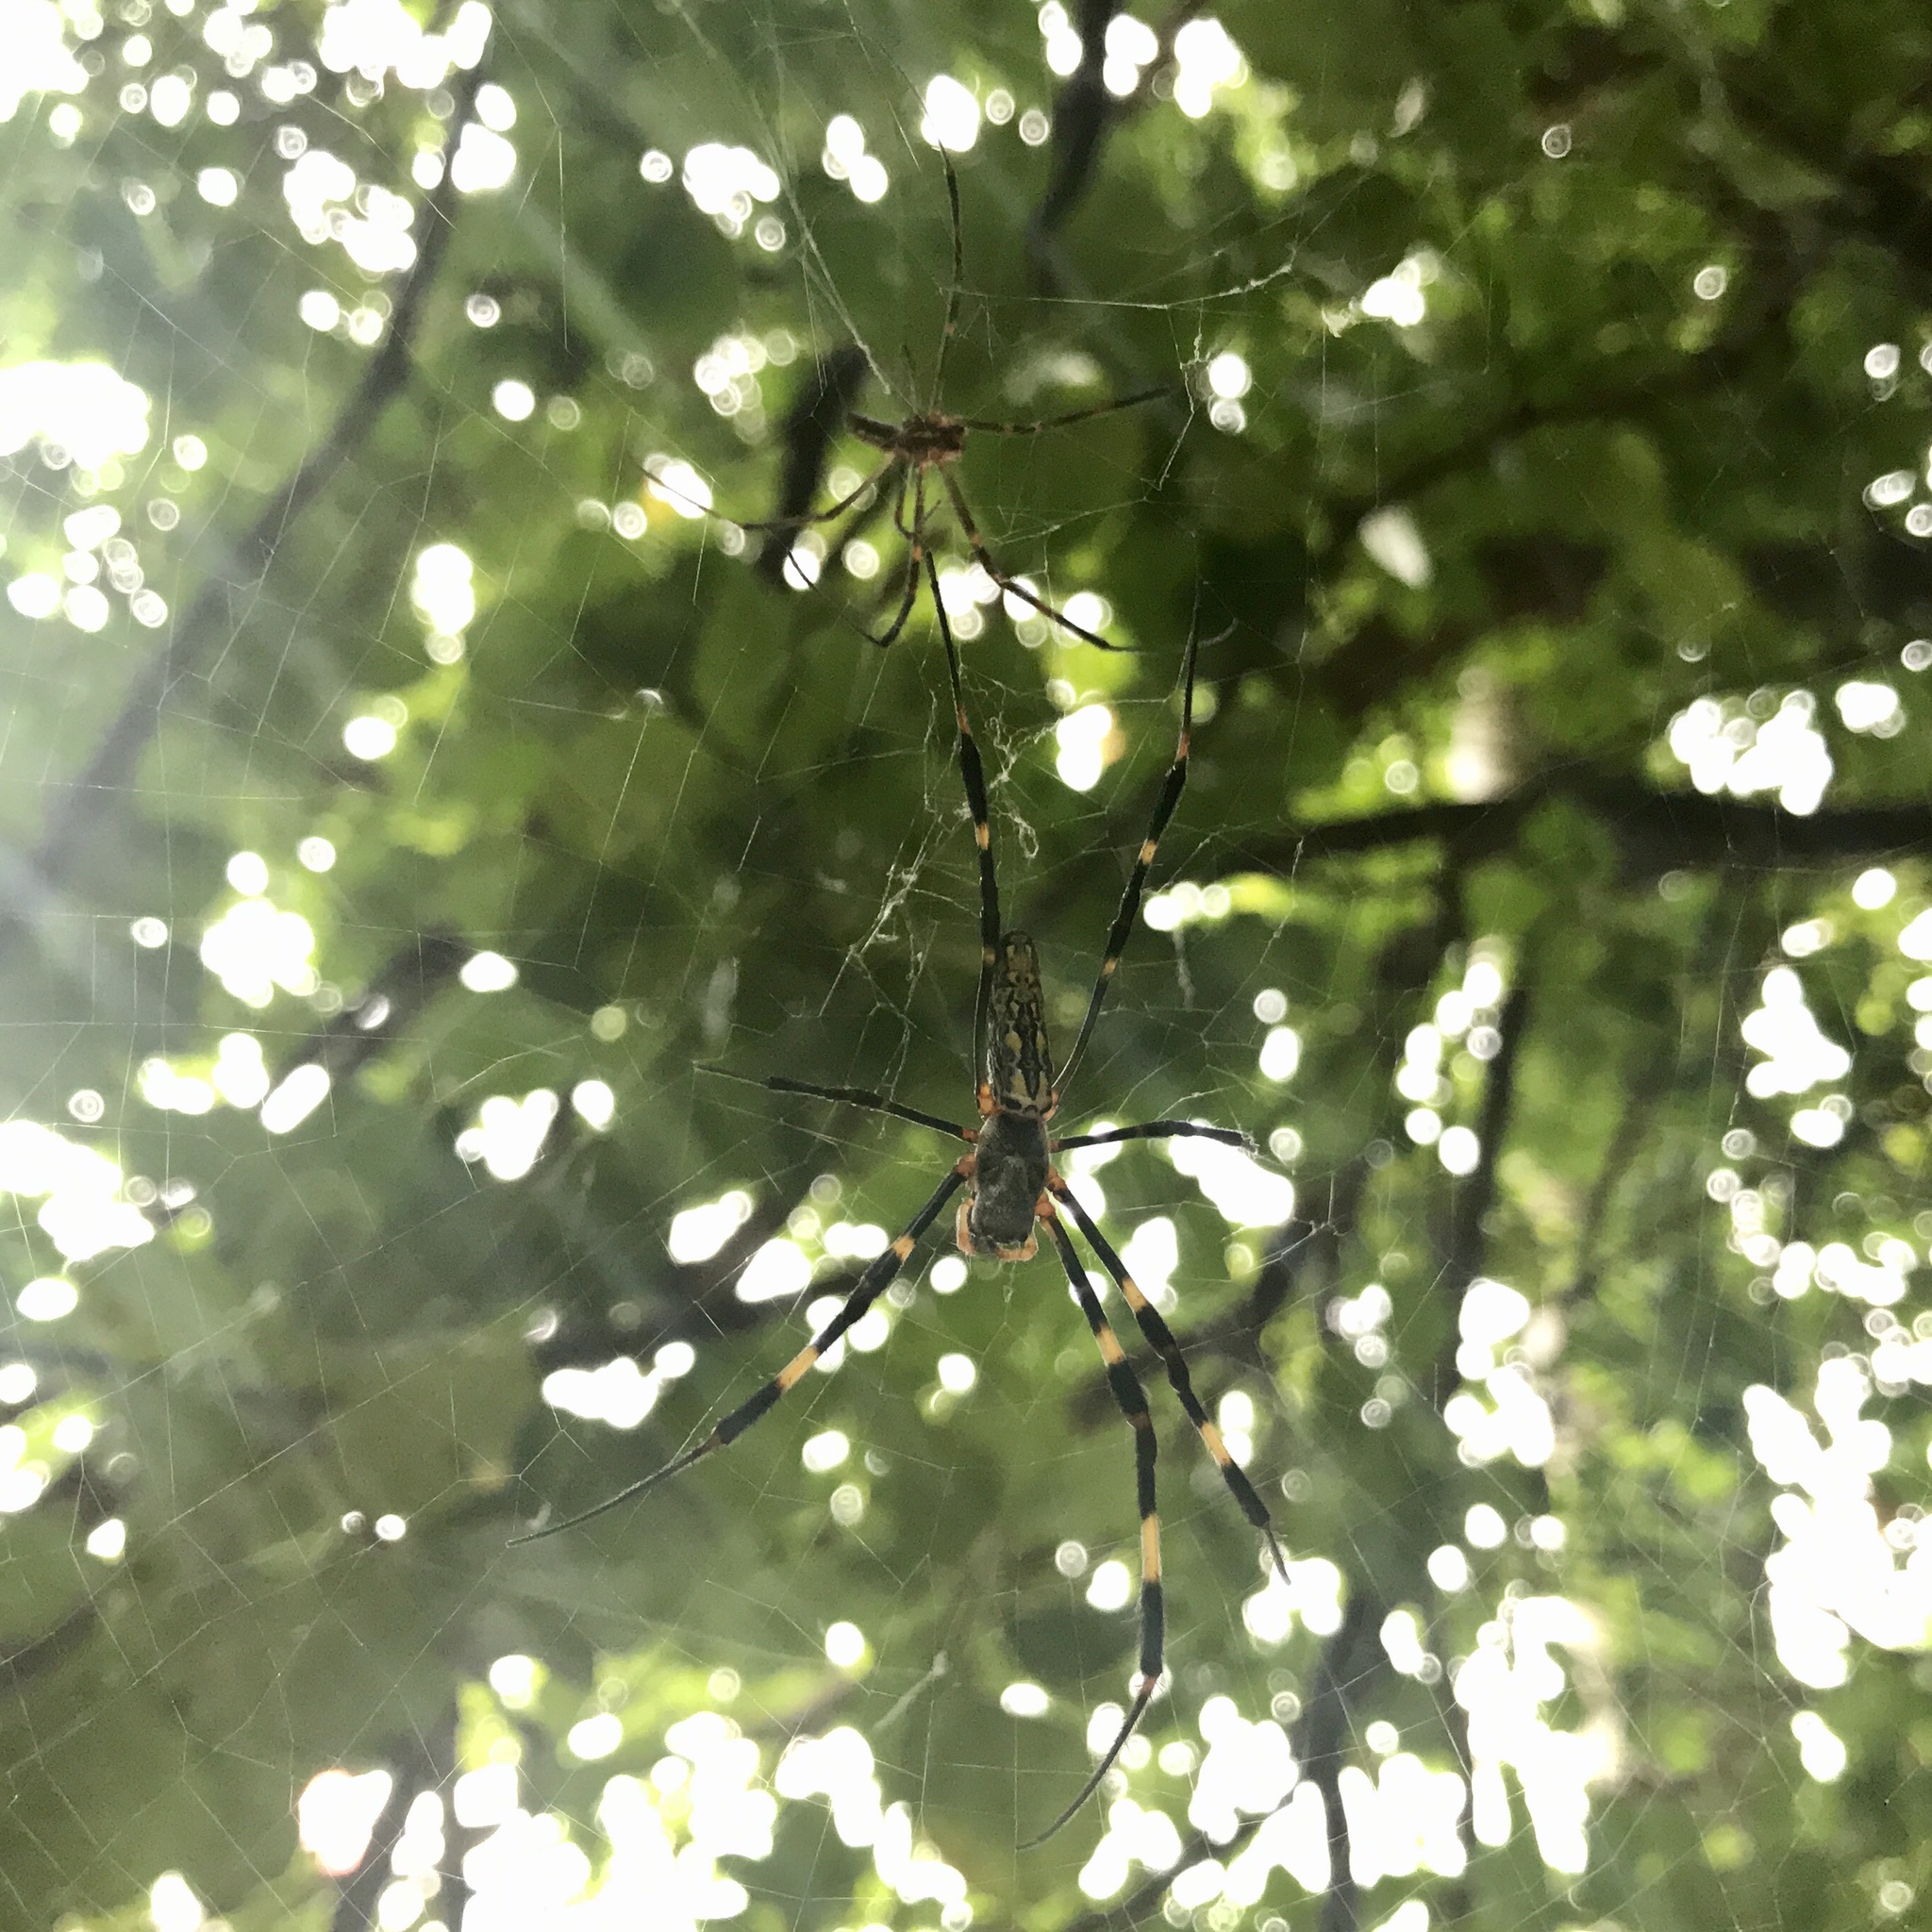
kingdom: Animalia
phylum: Arthropoda
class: Arachnida
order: Araneae
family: Araneidae
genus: Trichonephila
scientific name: Trichonephila clavata
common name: Jorō spider
